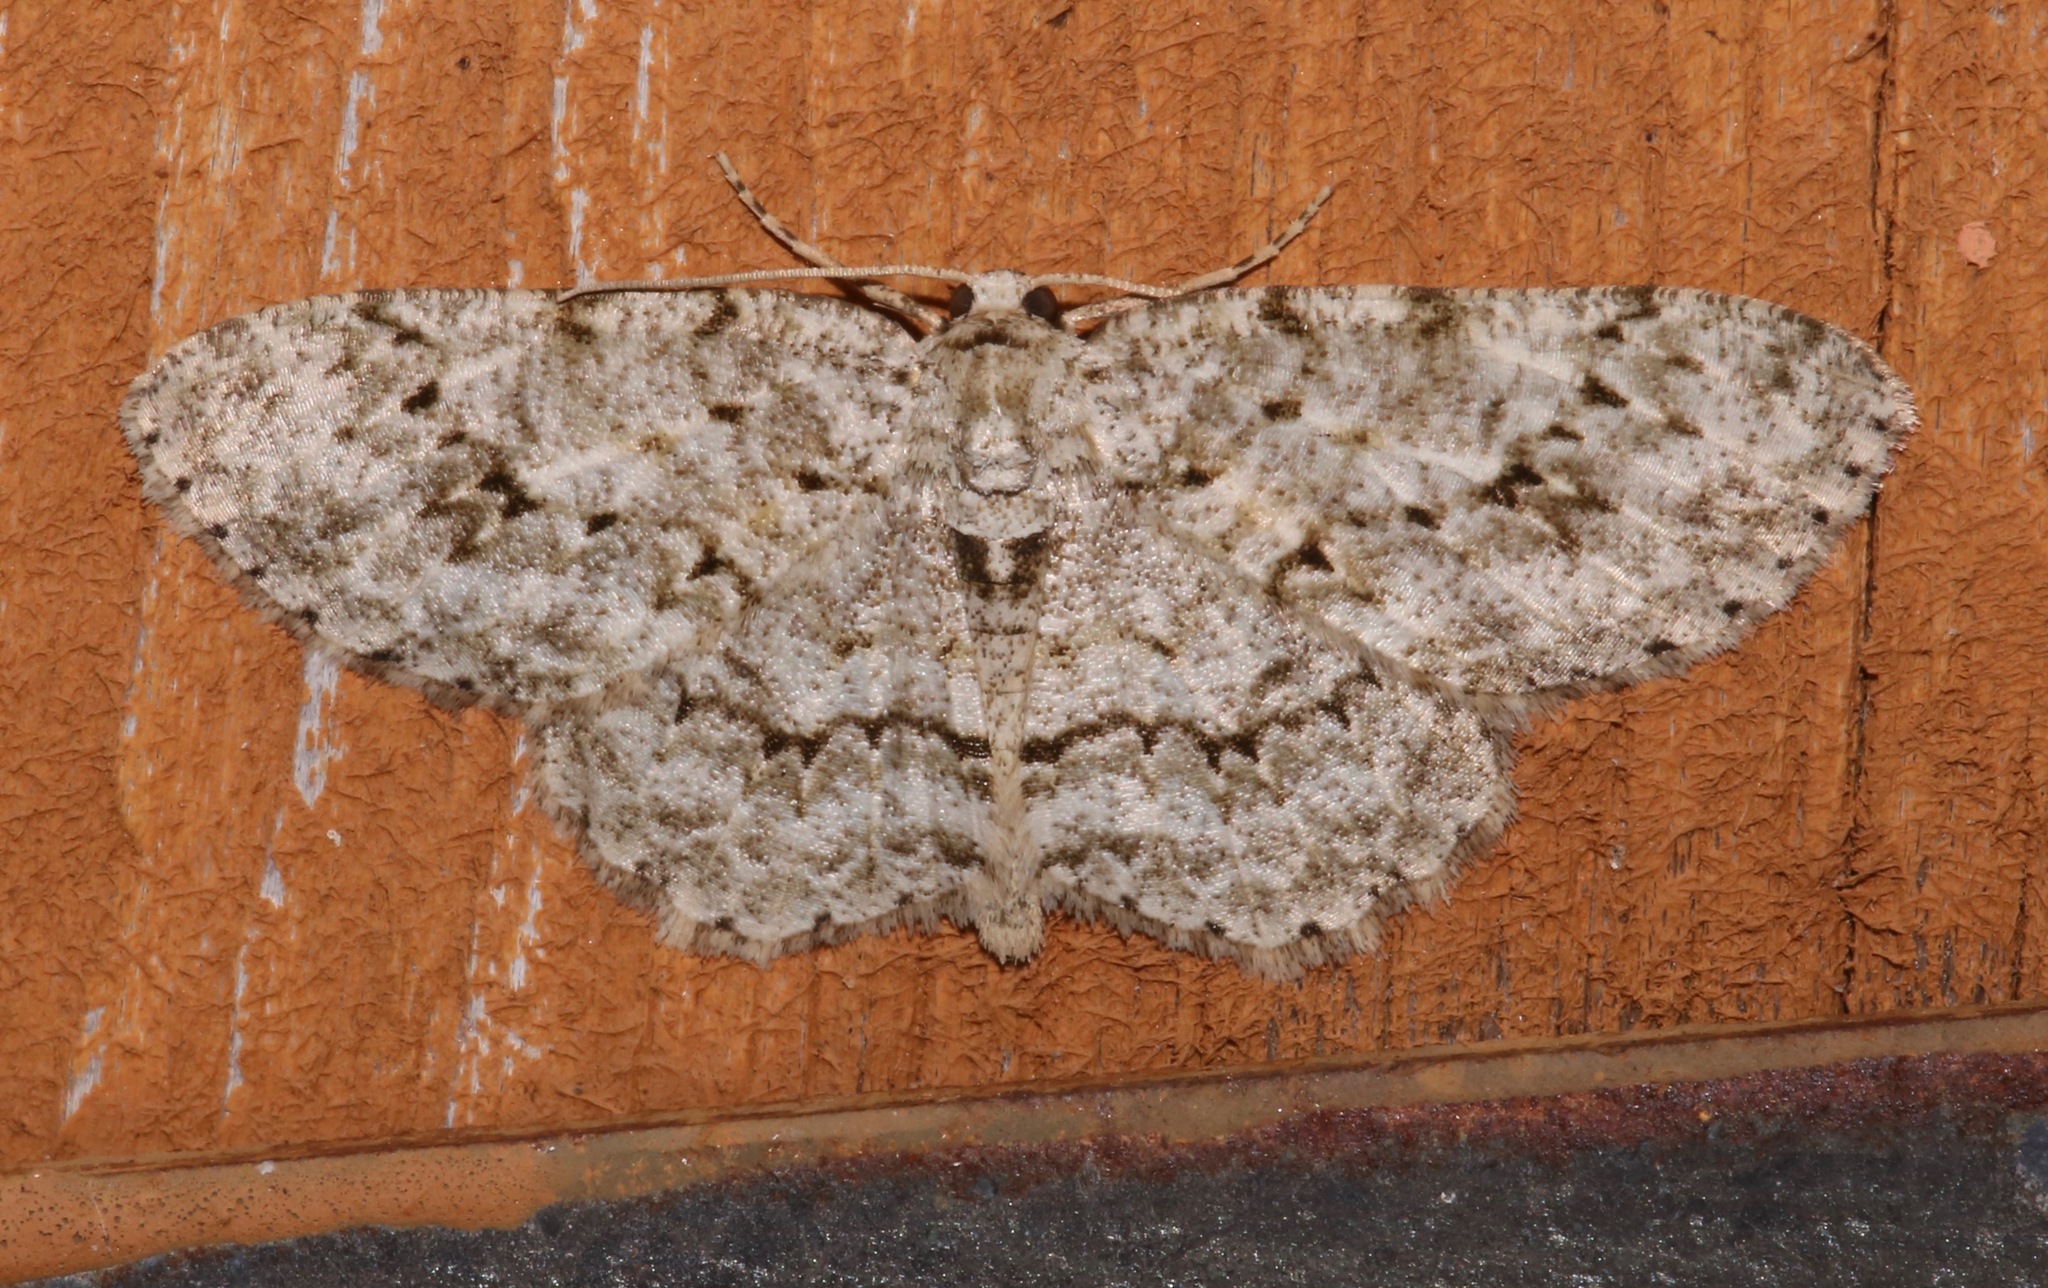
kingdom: Animalia
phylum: Arthropoda
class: Insecta
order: Lepidoptera
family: Geometridae
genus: Ectropis
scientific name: Ectropis crepuscularia
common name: Engrailed
